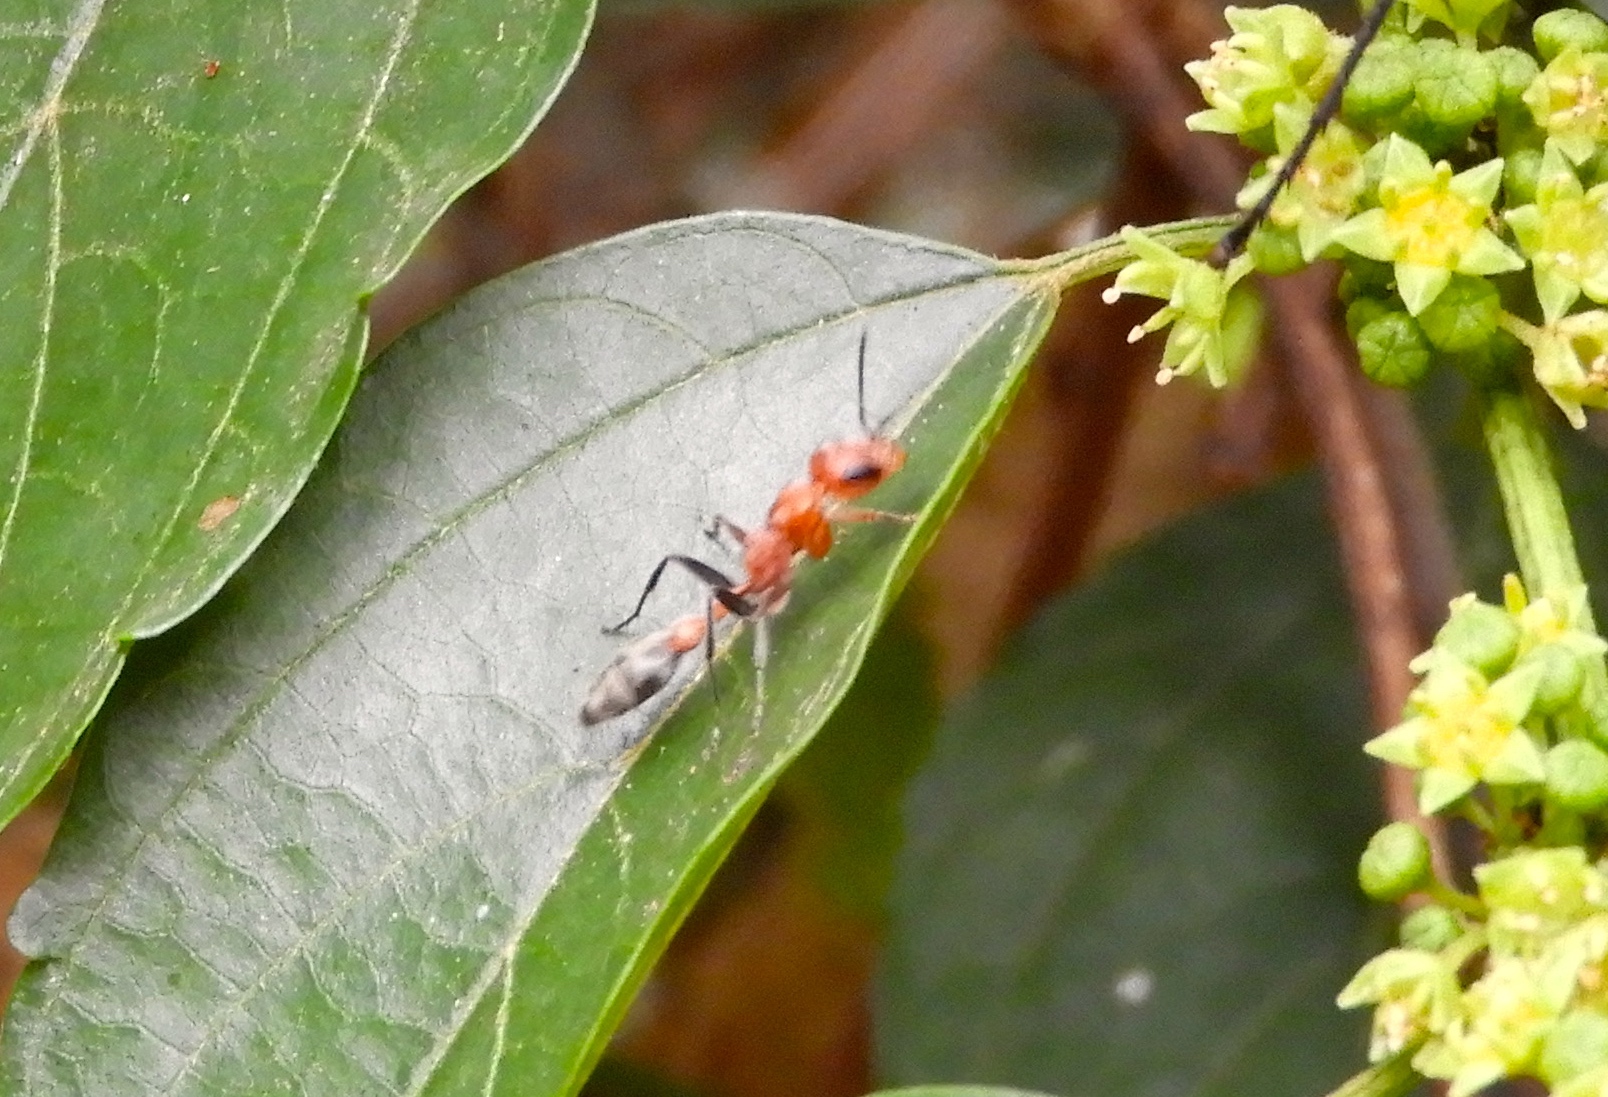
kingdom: Animalia
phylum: Arthropoda
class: Insecta
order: Hymenoptera
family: Formicidae
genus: Pseudomyrmex
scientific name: Pseudomyrmex
